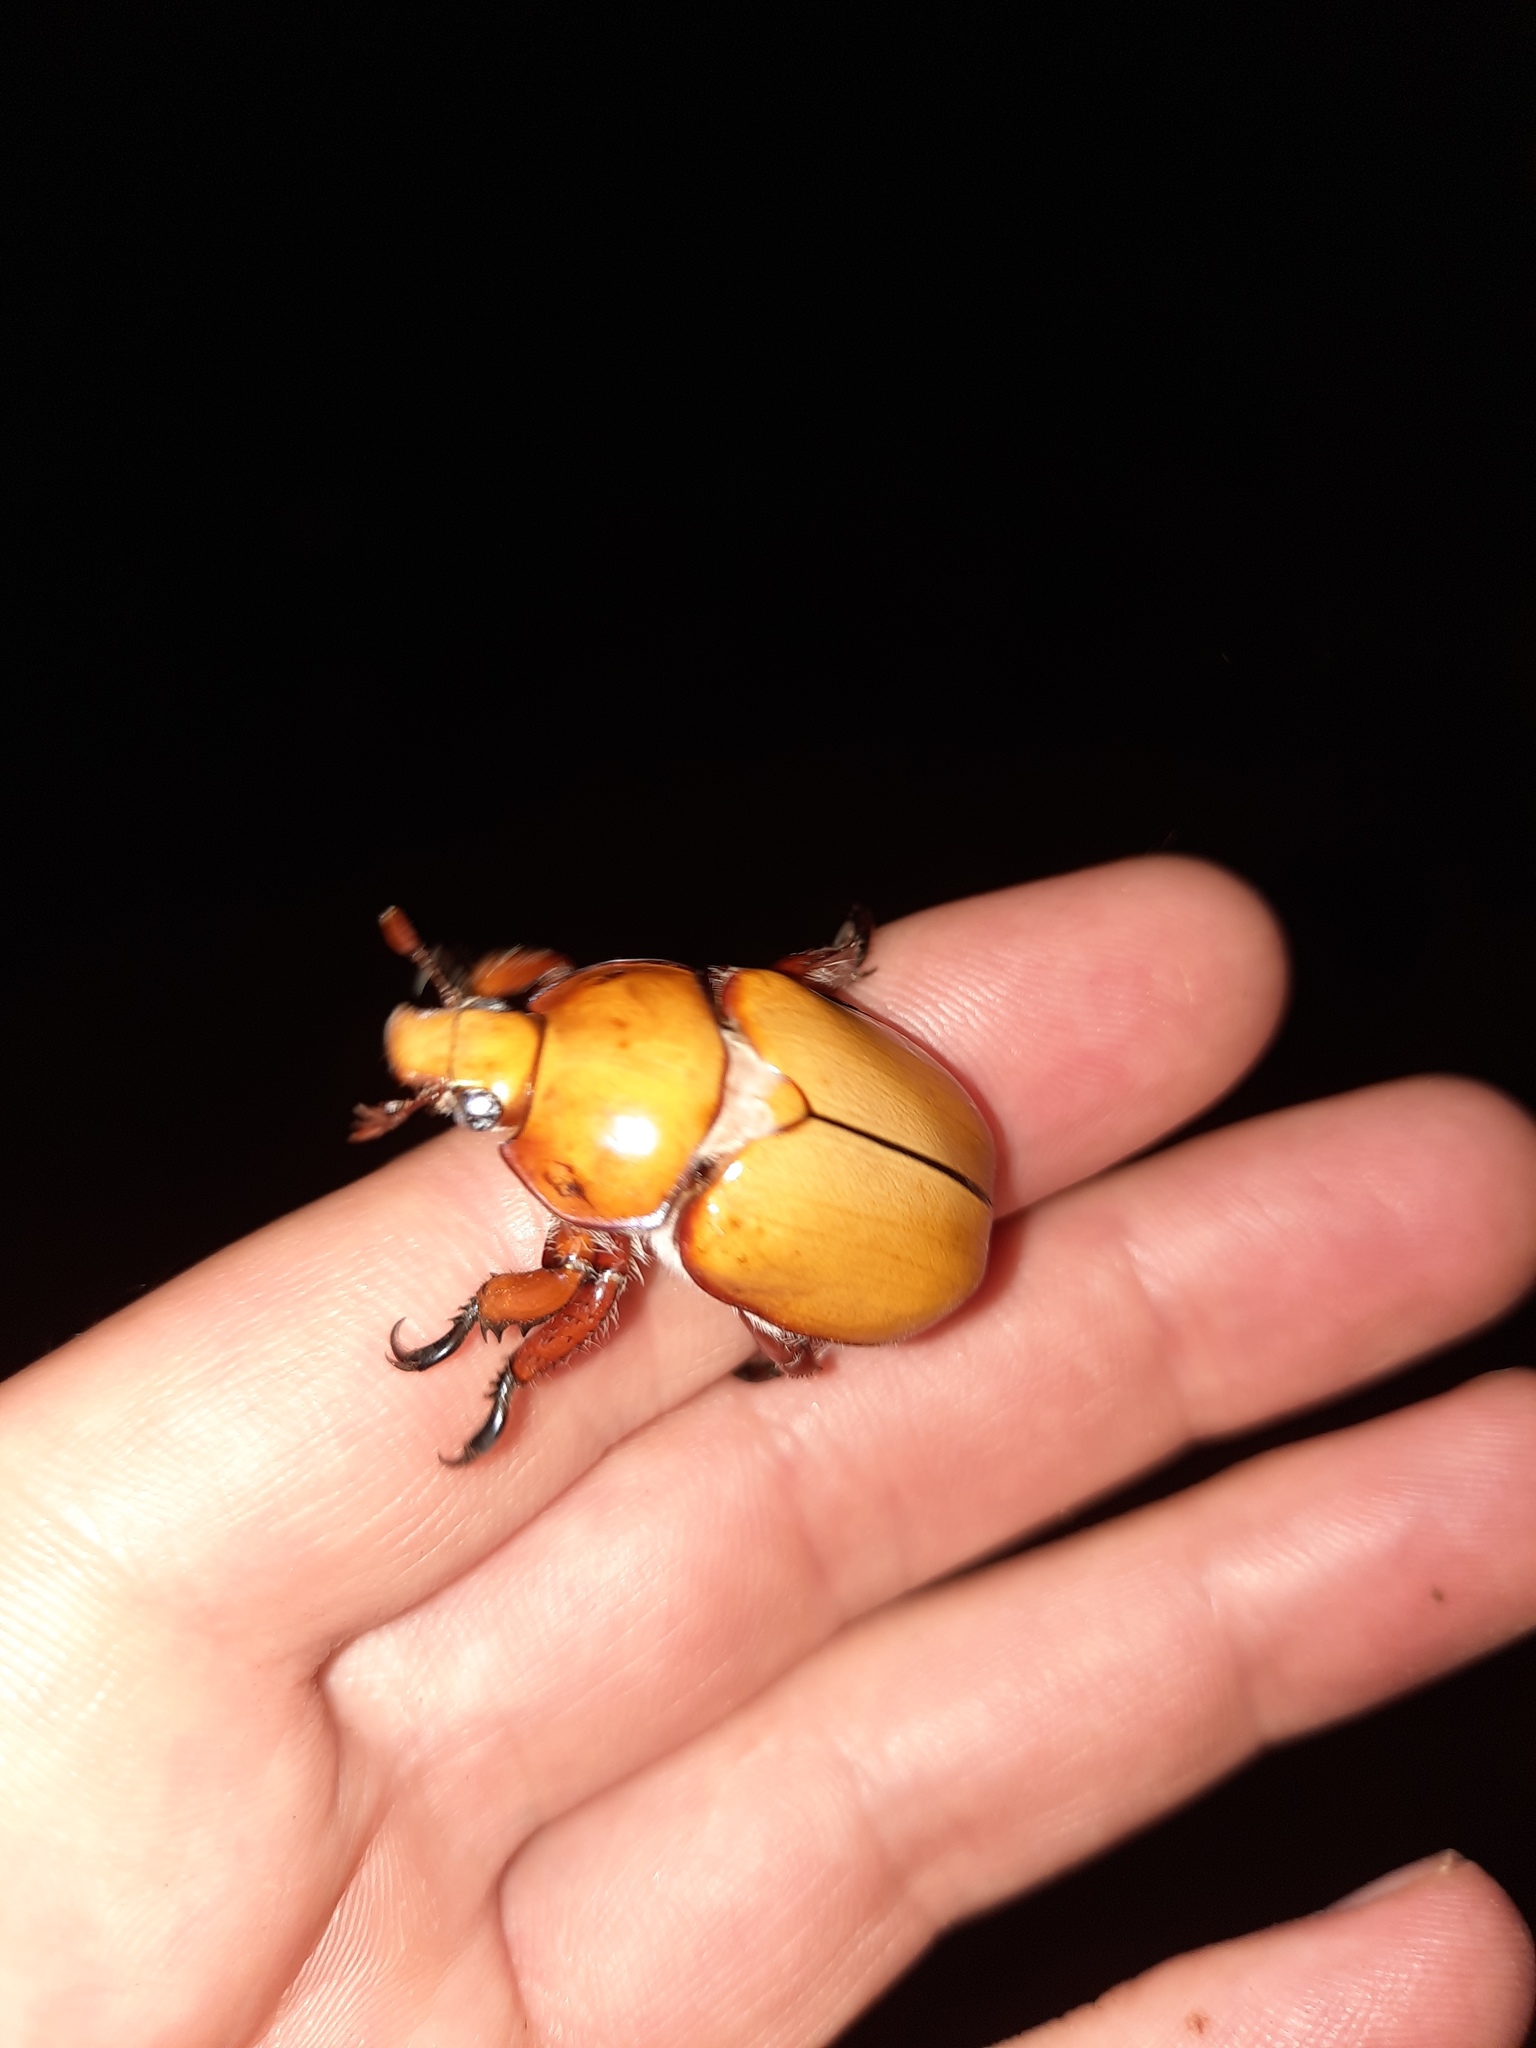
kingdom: Animalia
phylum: Arthropoda
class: Insecta
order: Coleoptera
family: Scarabaeidae
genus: Anoplognathus
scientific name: Anoplognathus montanus
